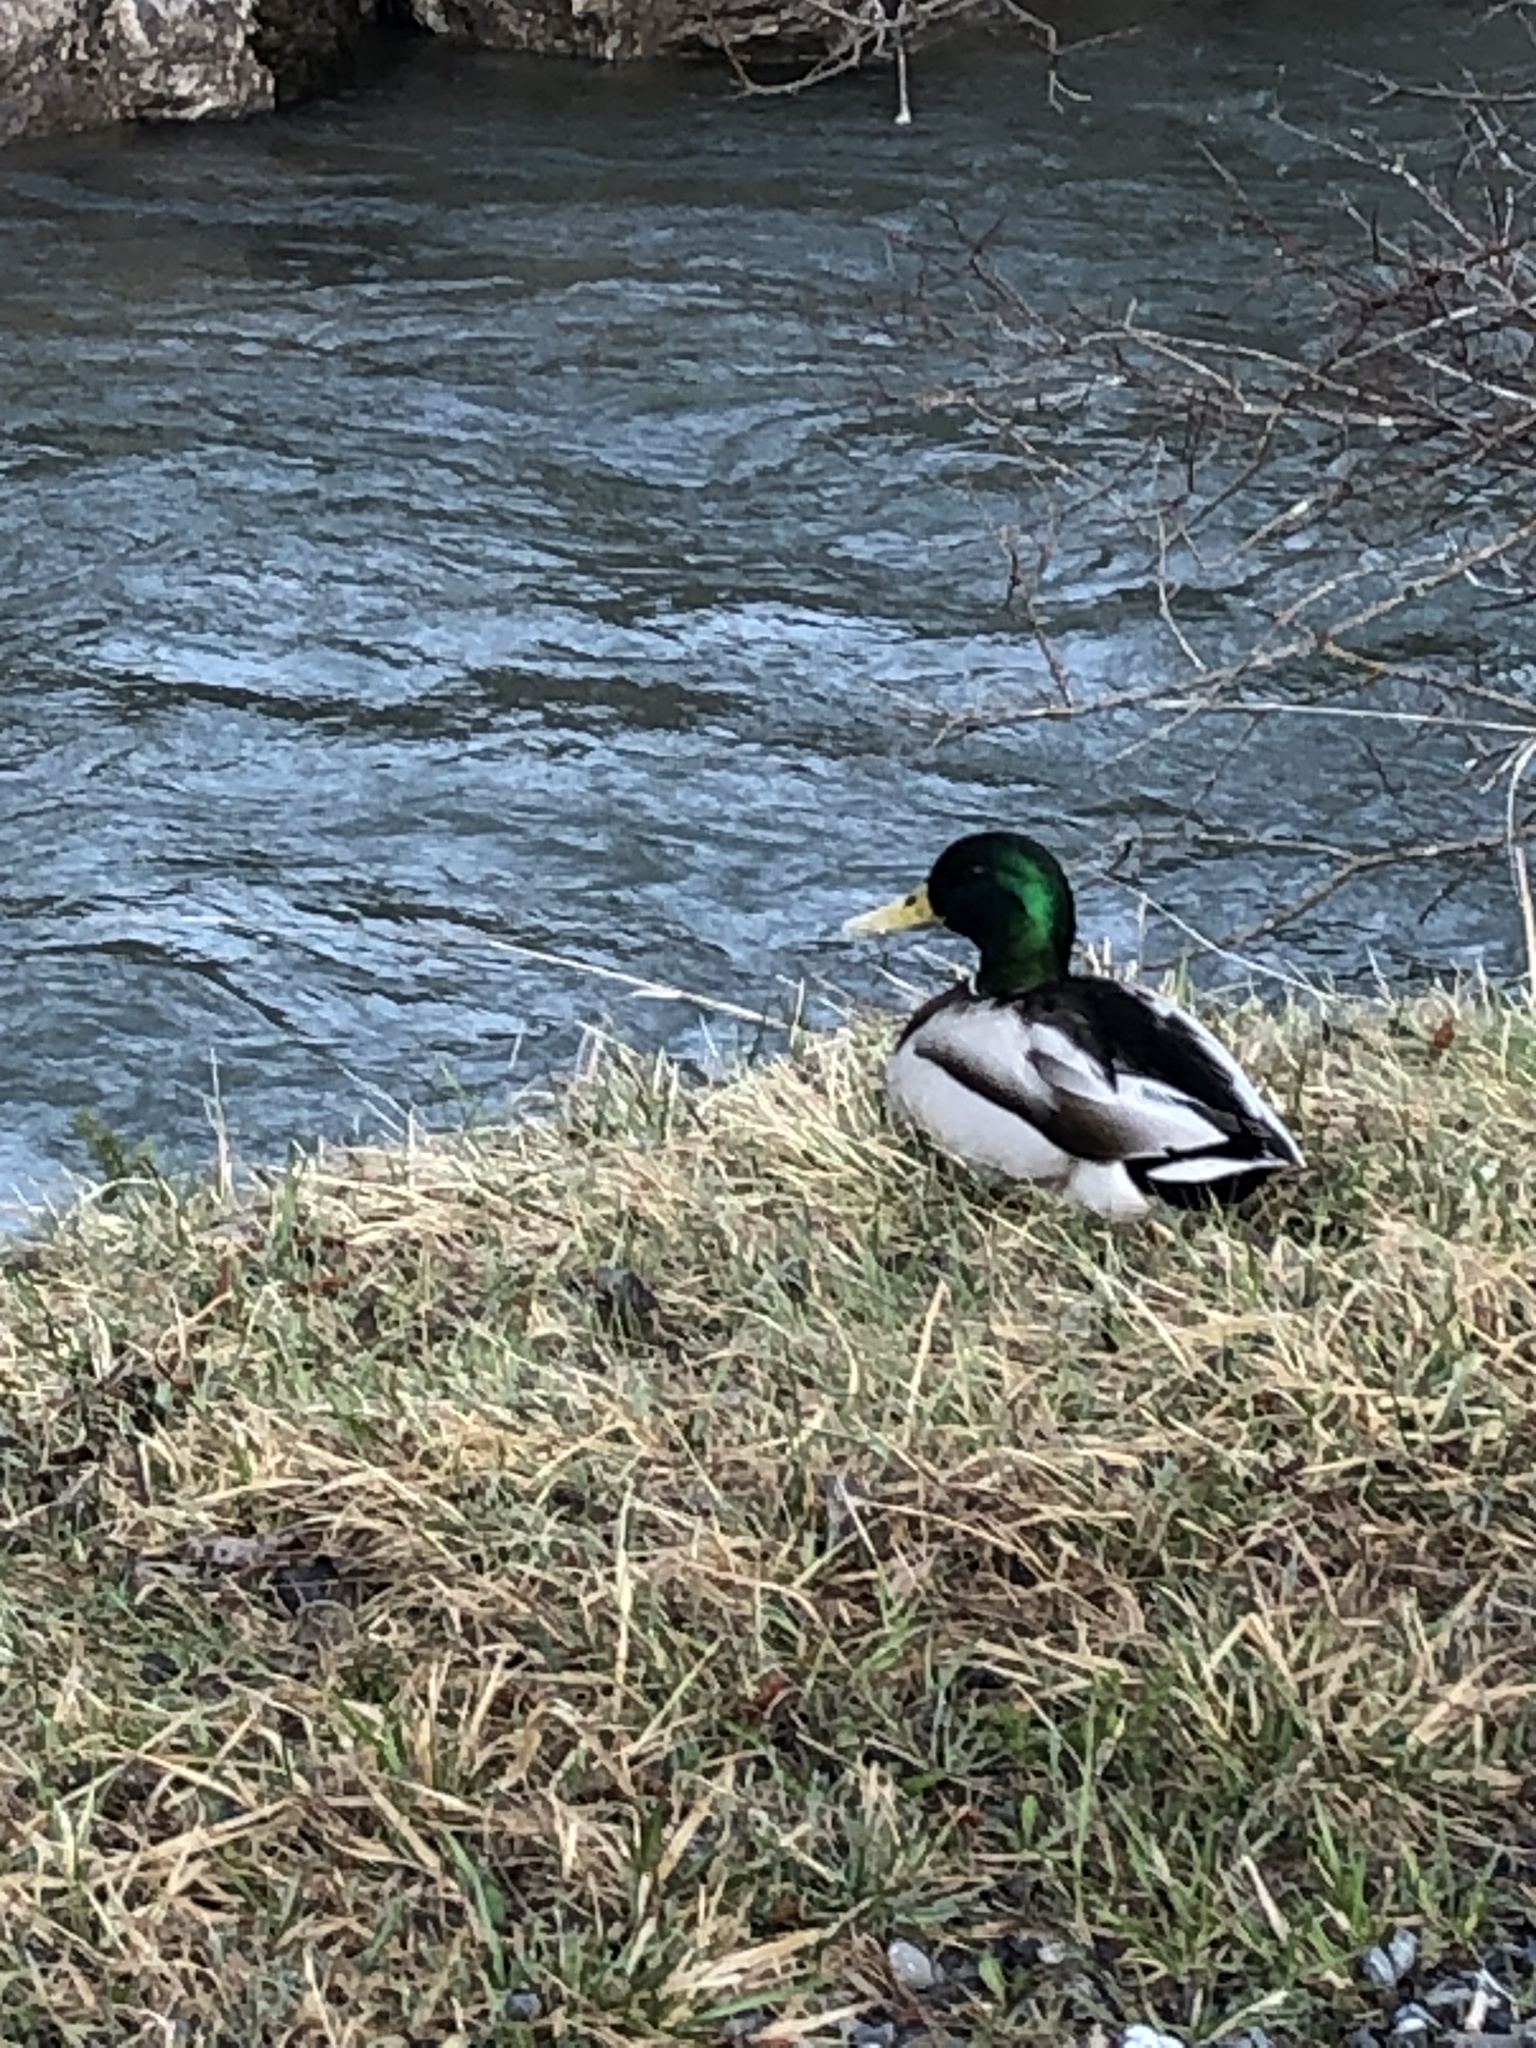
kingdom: Animalia
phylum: Chordata
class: Aves
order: Anseriformes
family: Anatidae
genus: Anas
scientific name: Anas platyrhynchos
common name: Mallard
